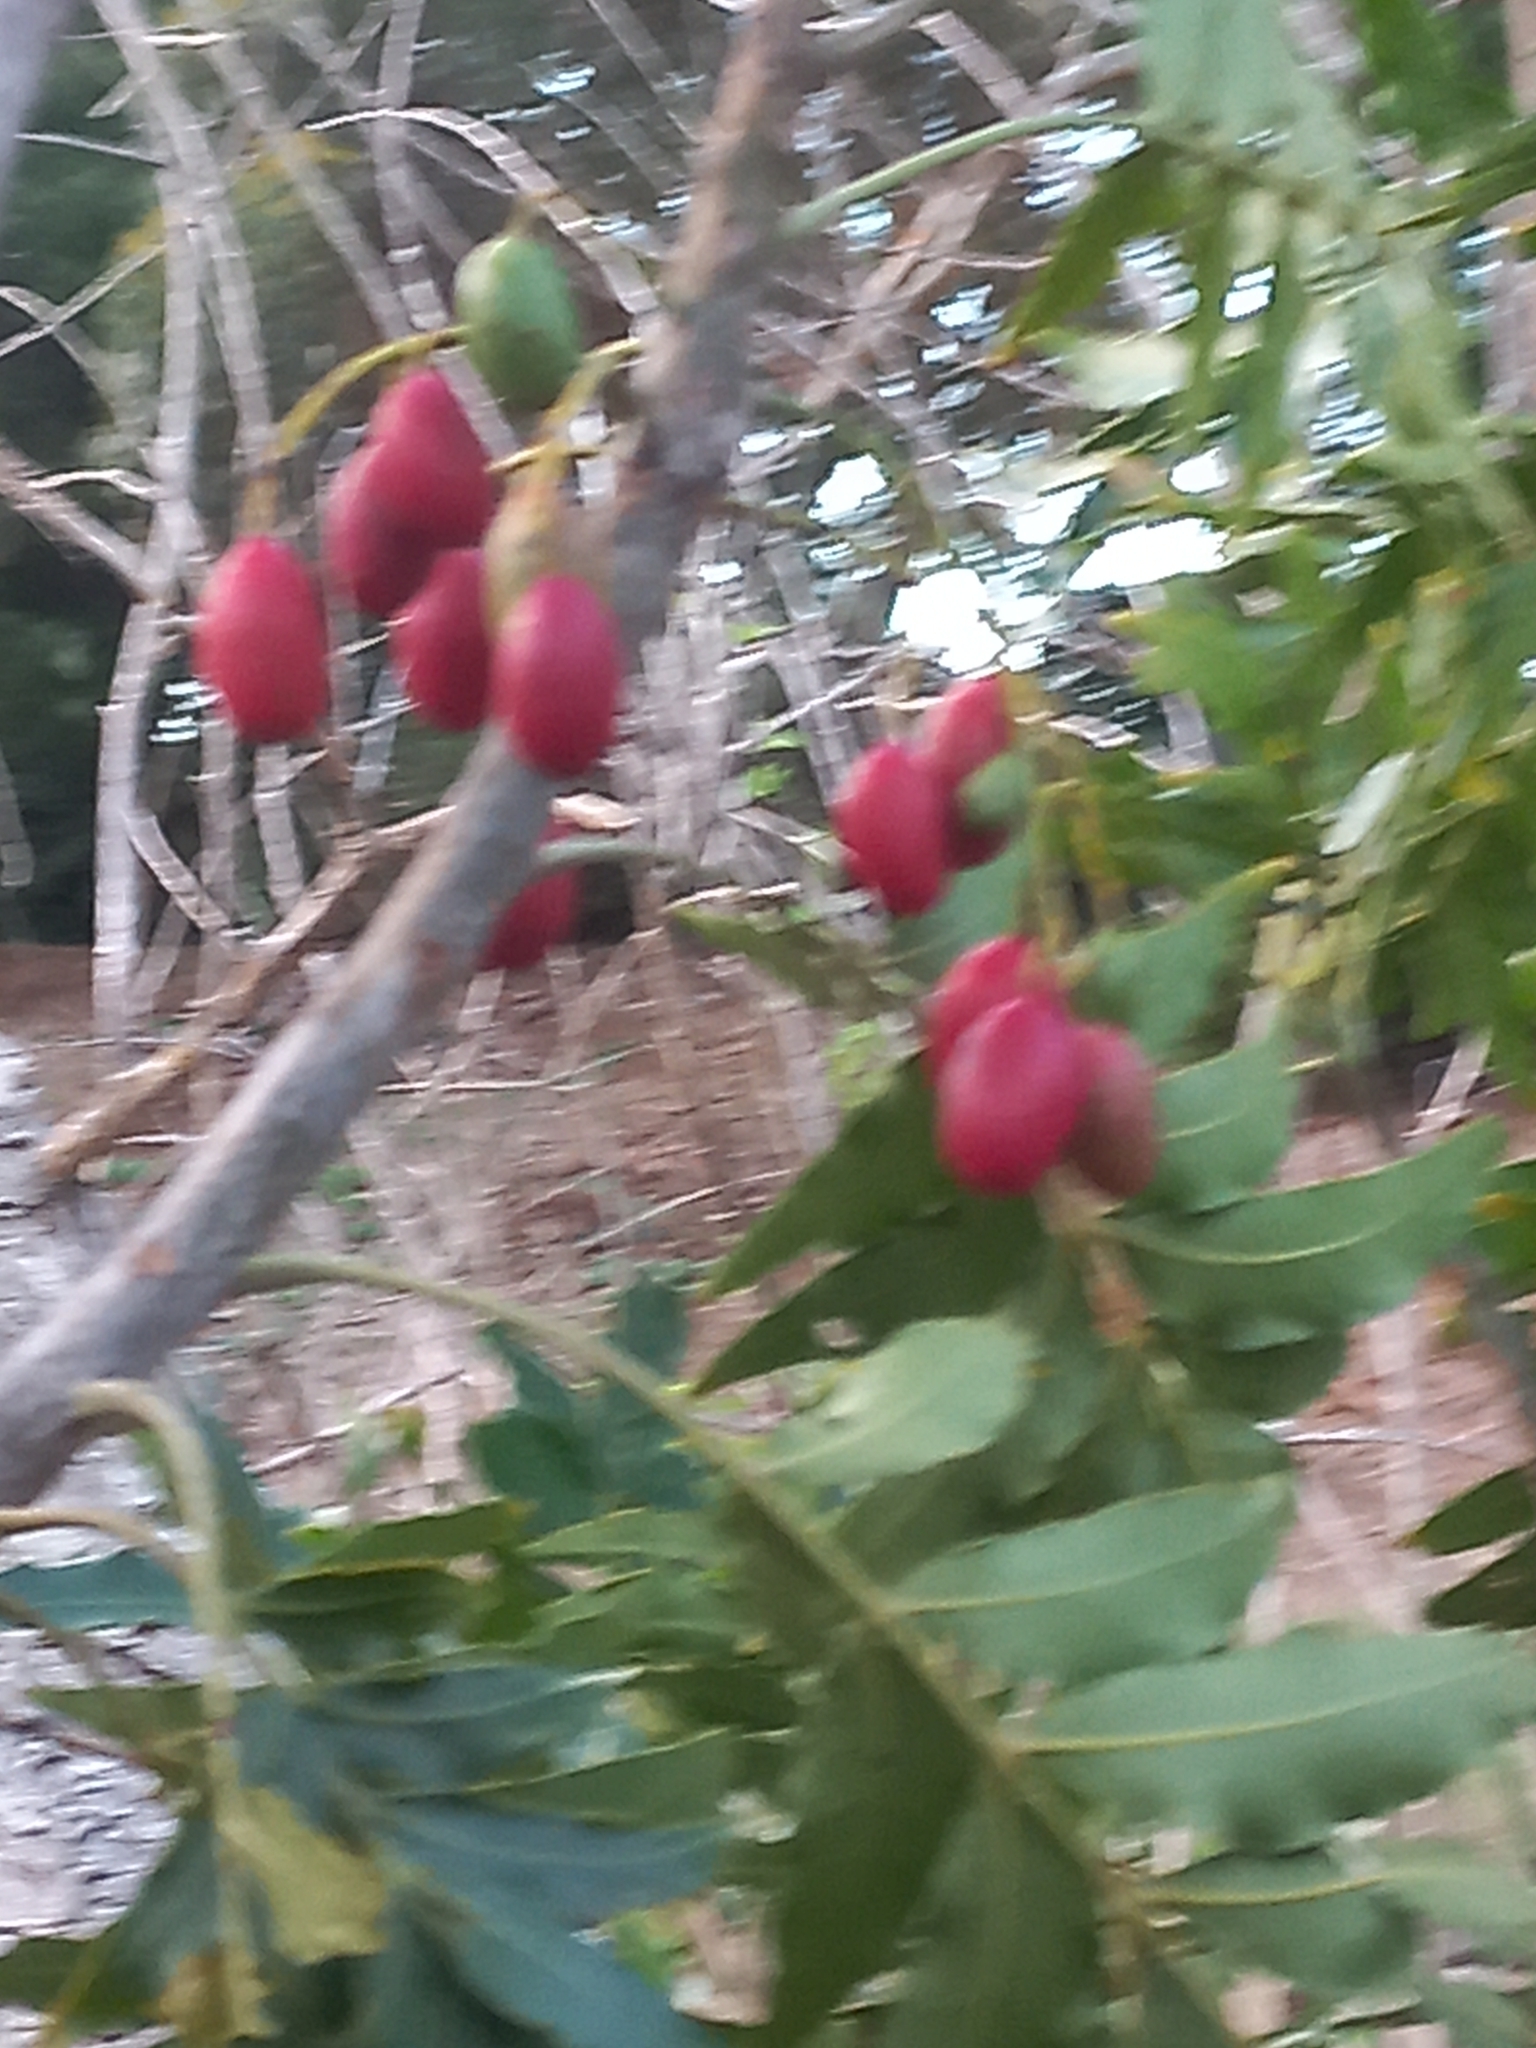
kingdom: Plantae
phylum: Tracheophyta
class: Magnoliopsida
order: Sapindales
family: Anacardiaceae
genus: Harpephyllum
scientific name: Harpephyllum caffrum
